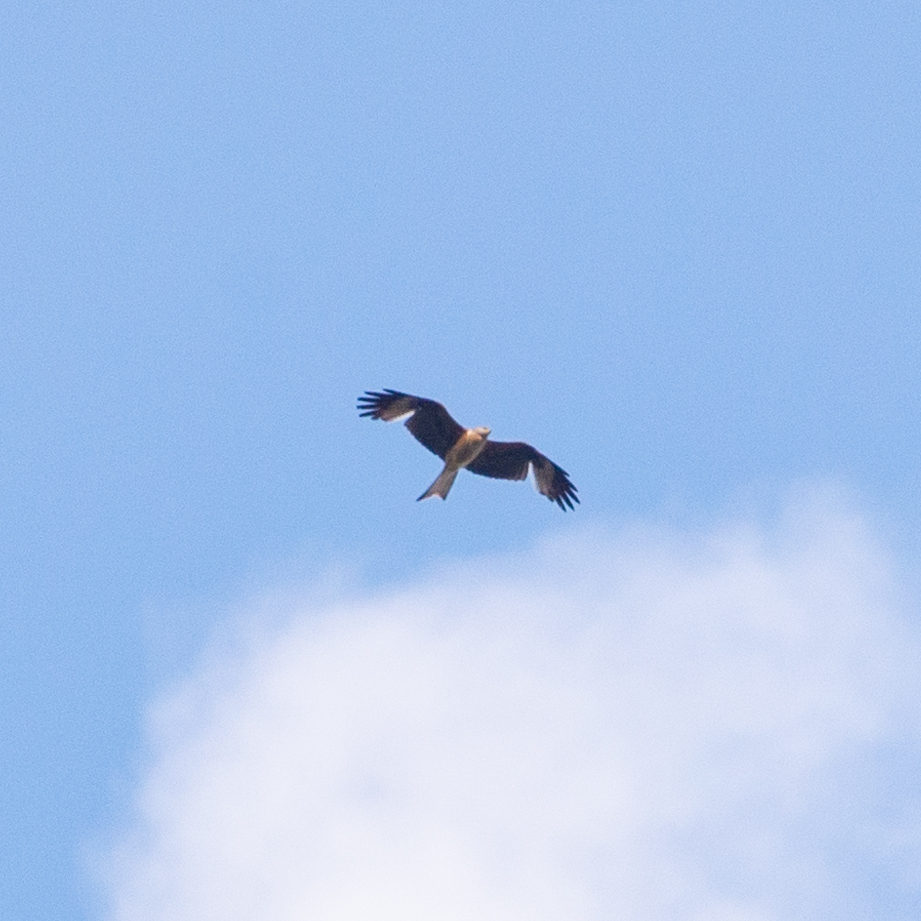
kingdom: Animalia
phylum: Chordata
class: Aves
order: Accipitriformes
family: Accipitridae
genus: Milvus
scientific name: Milvus milvus
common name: Red kite
